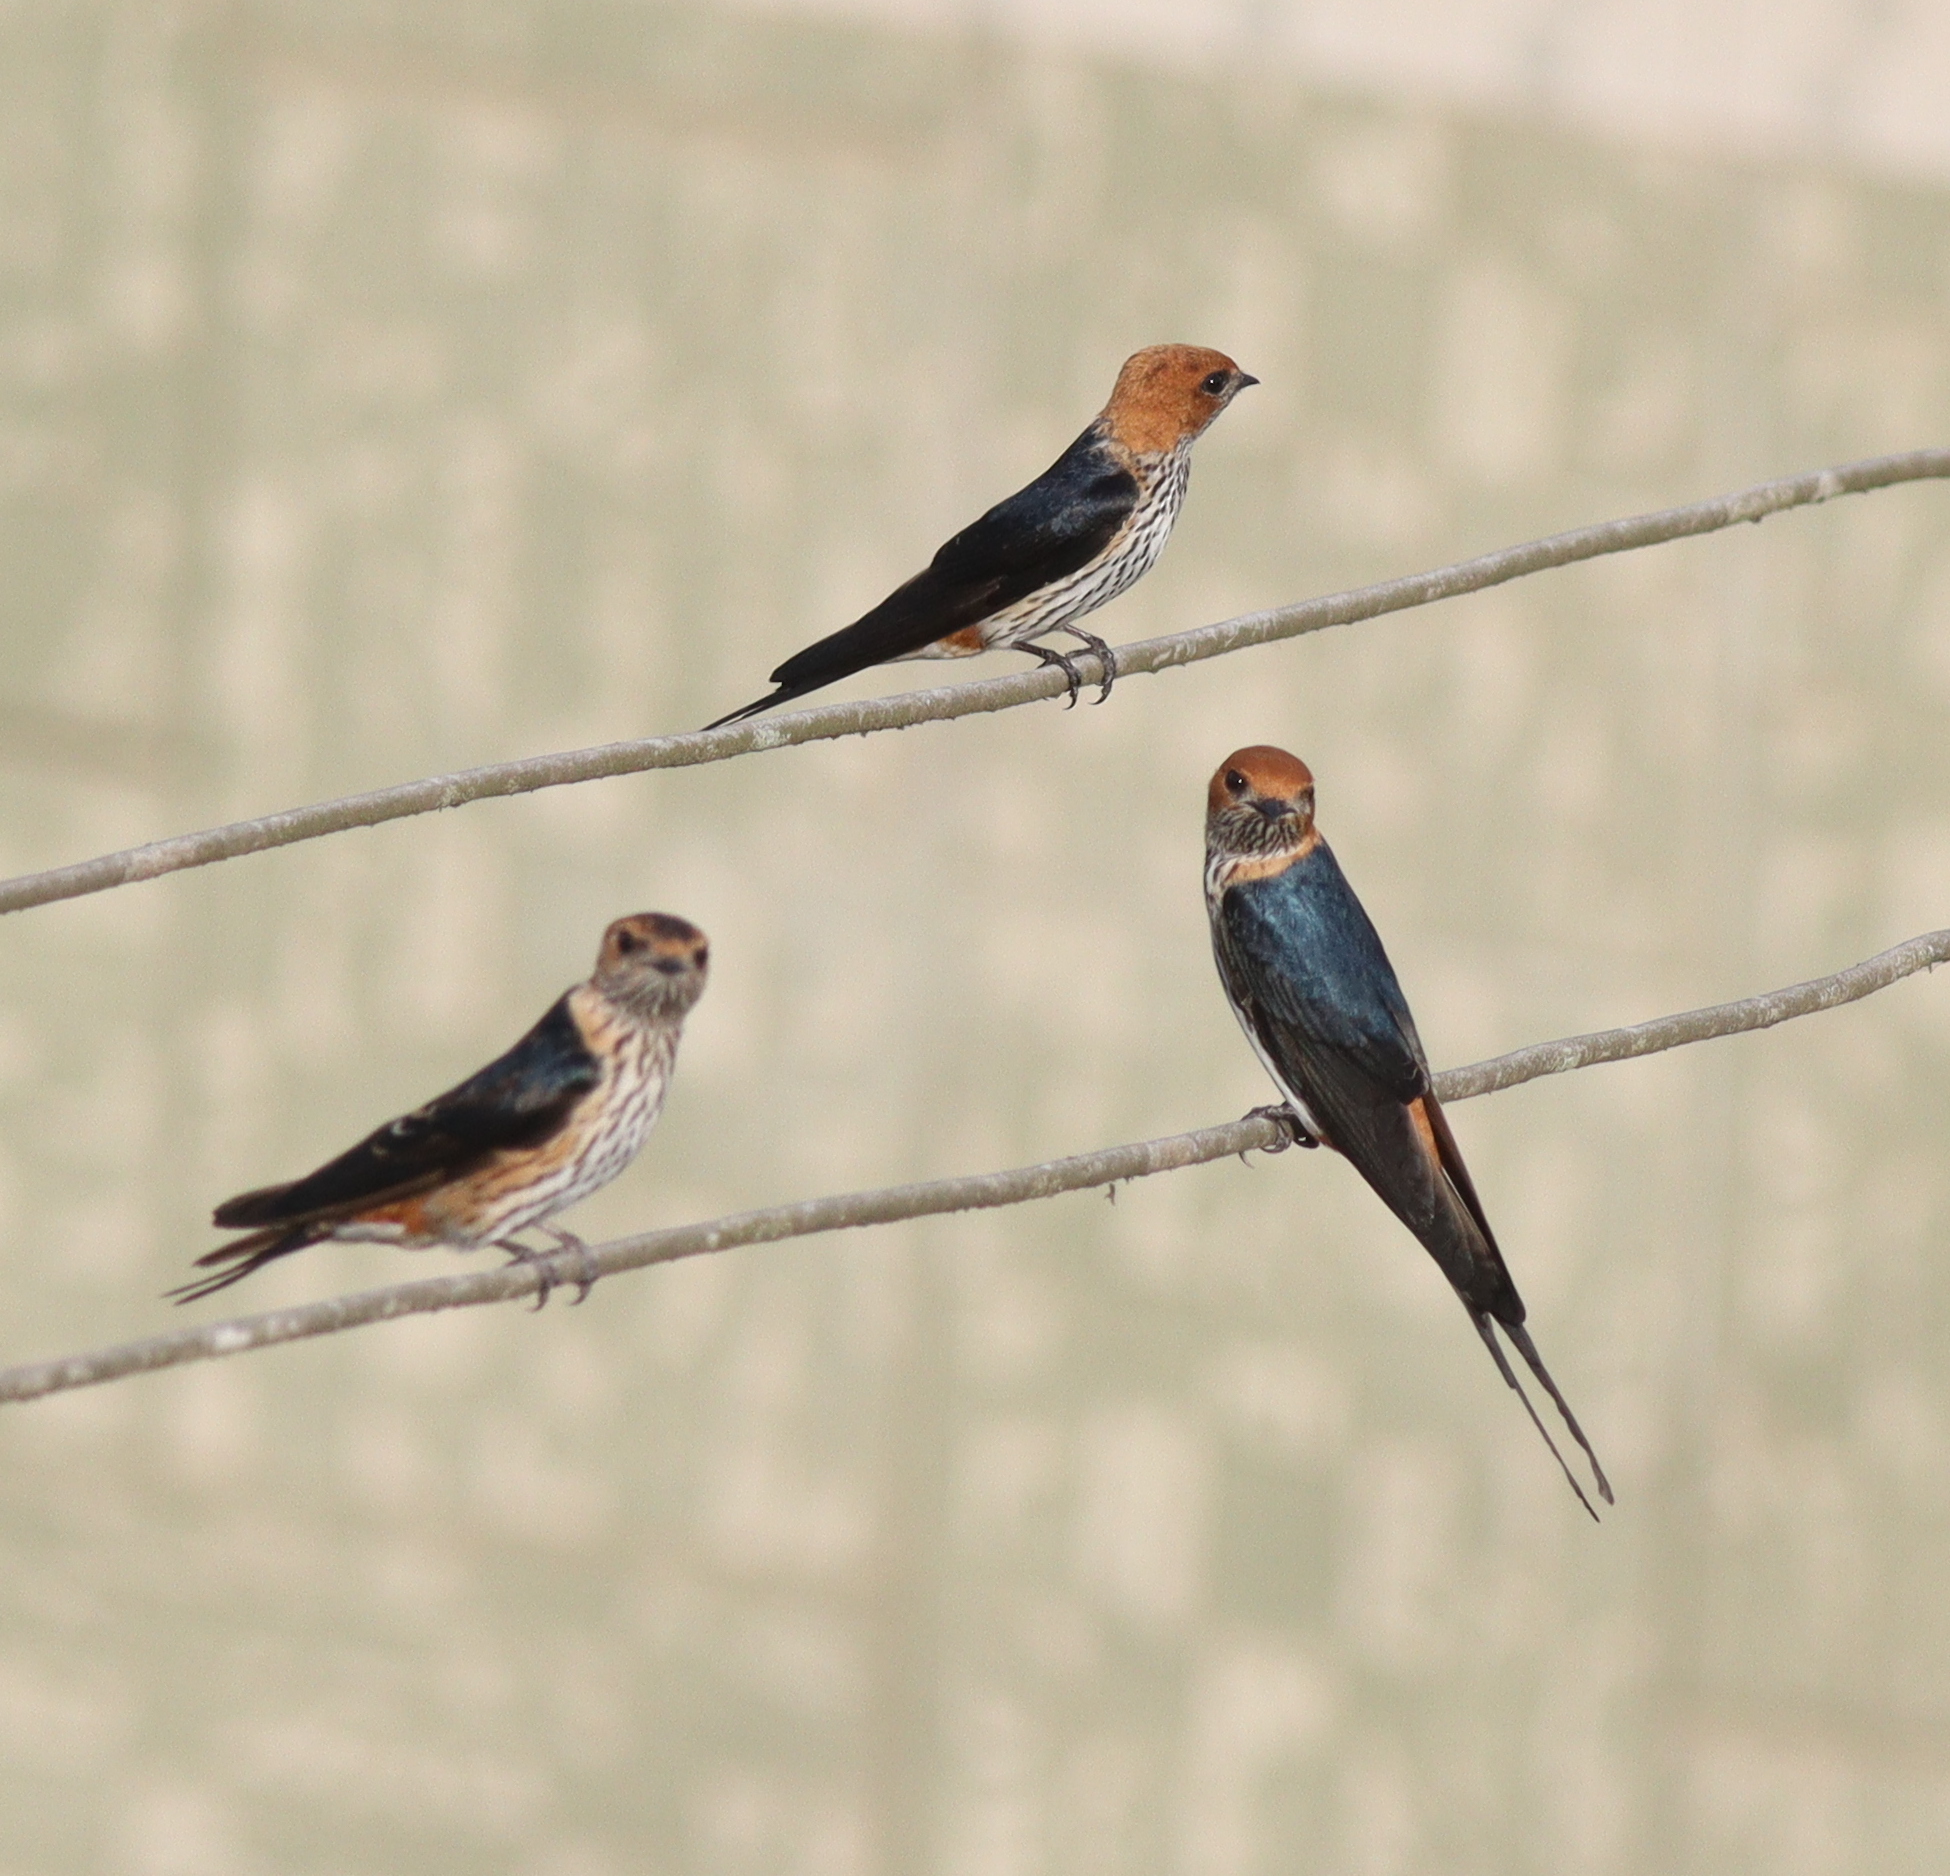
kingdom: Animalia
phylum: Chordata
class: Aves
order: Passeriformes
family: Hirundinidae
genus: Cecropis
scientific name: Cecropis abyssinica
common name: Lesser striped-swallow
